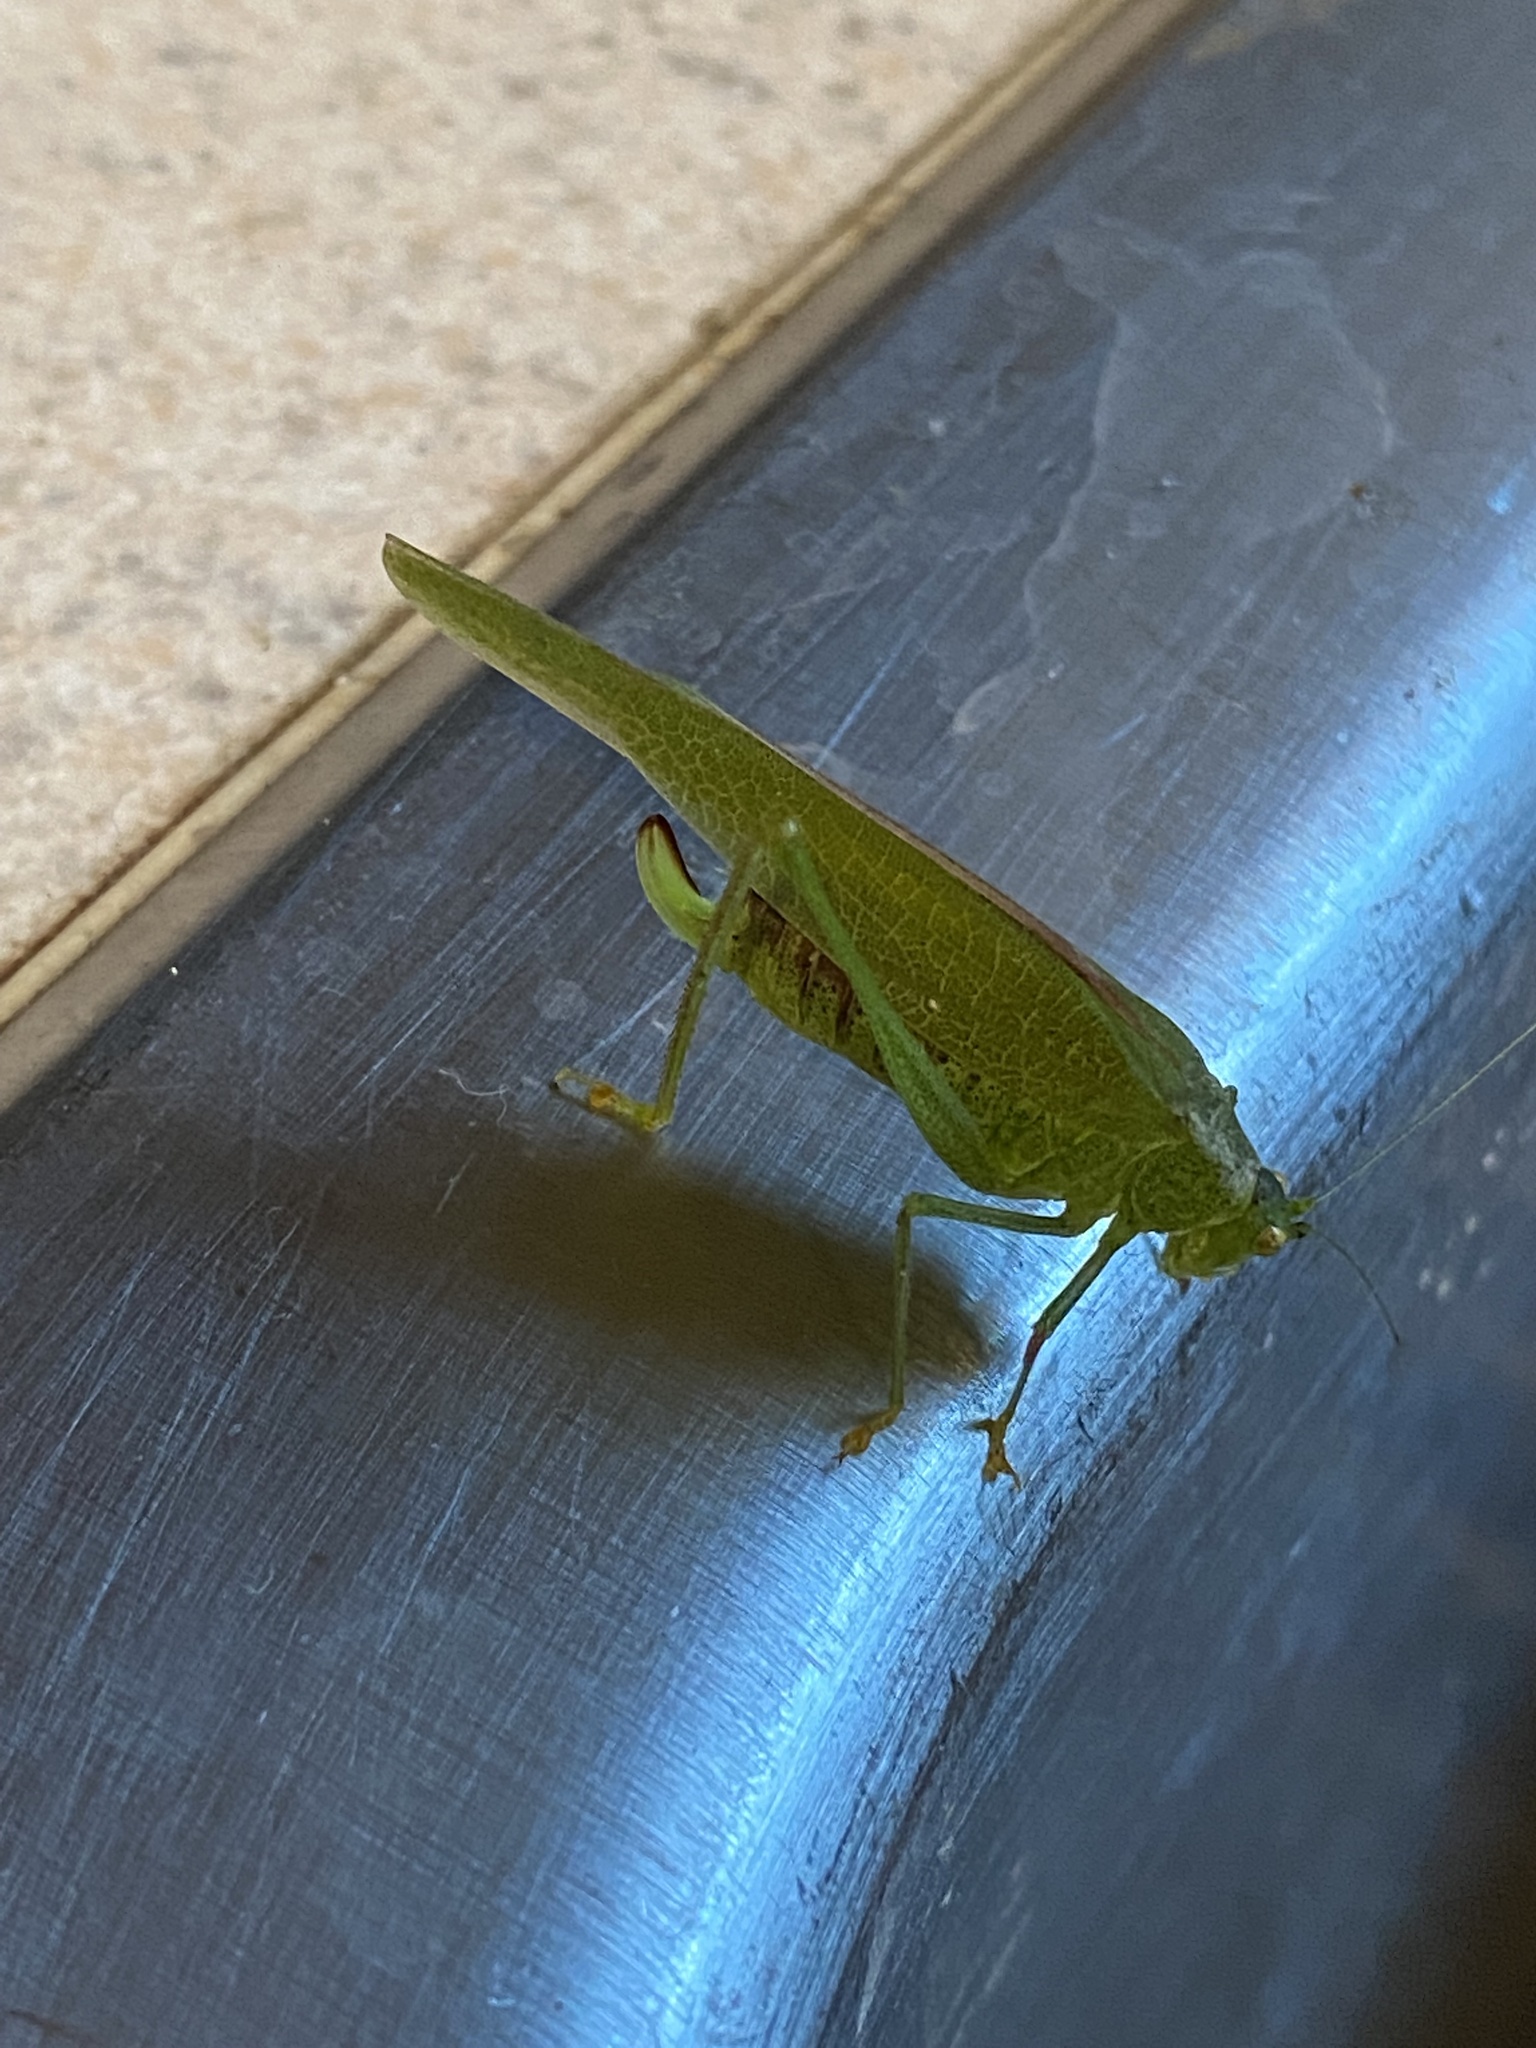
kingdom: Animalia
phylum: Arthropoda
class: Insecta
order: Orthoptera
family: Tettigoniidae
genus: Phaneroptera
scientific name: Phaneroptera nana
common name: Southern sickle bush-cricket
